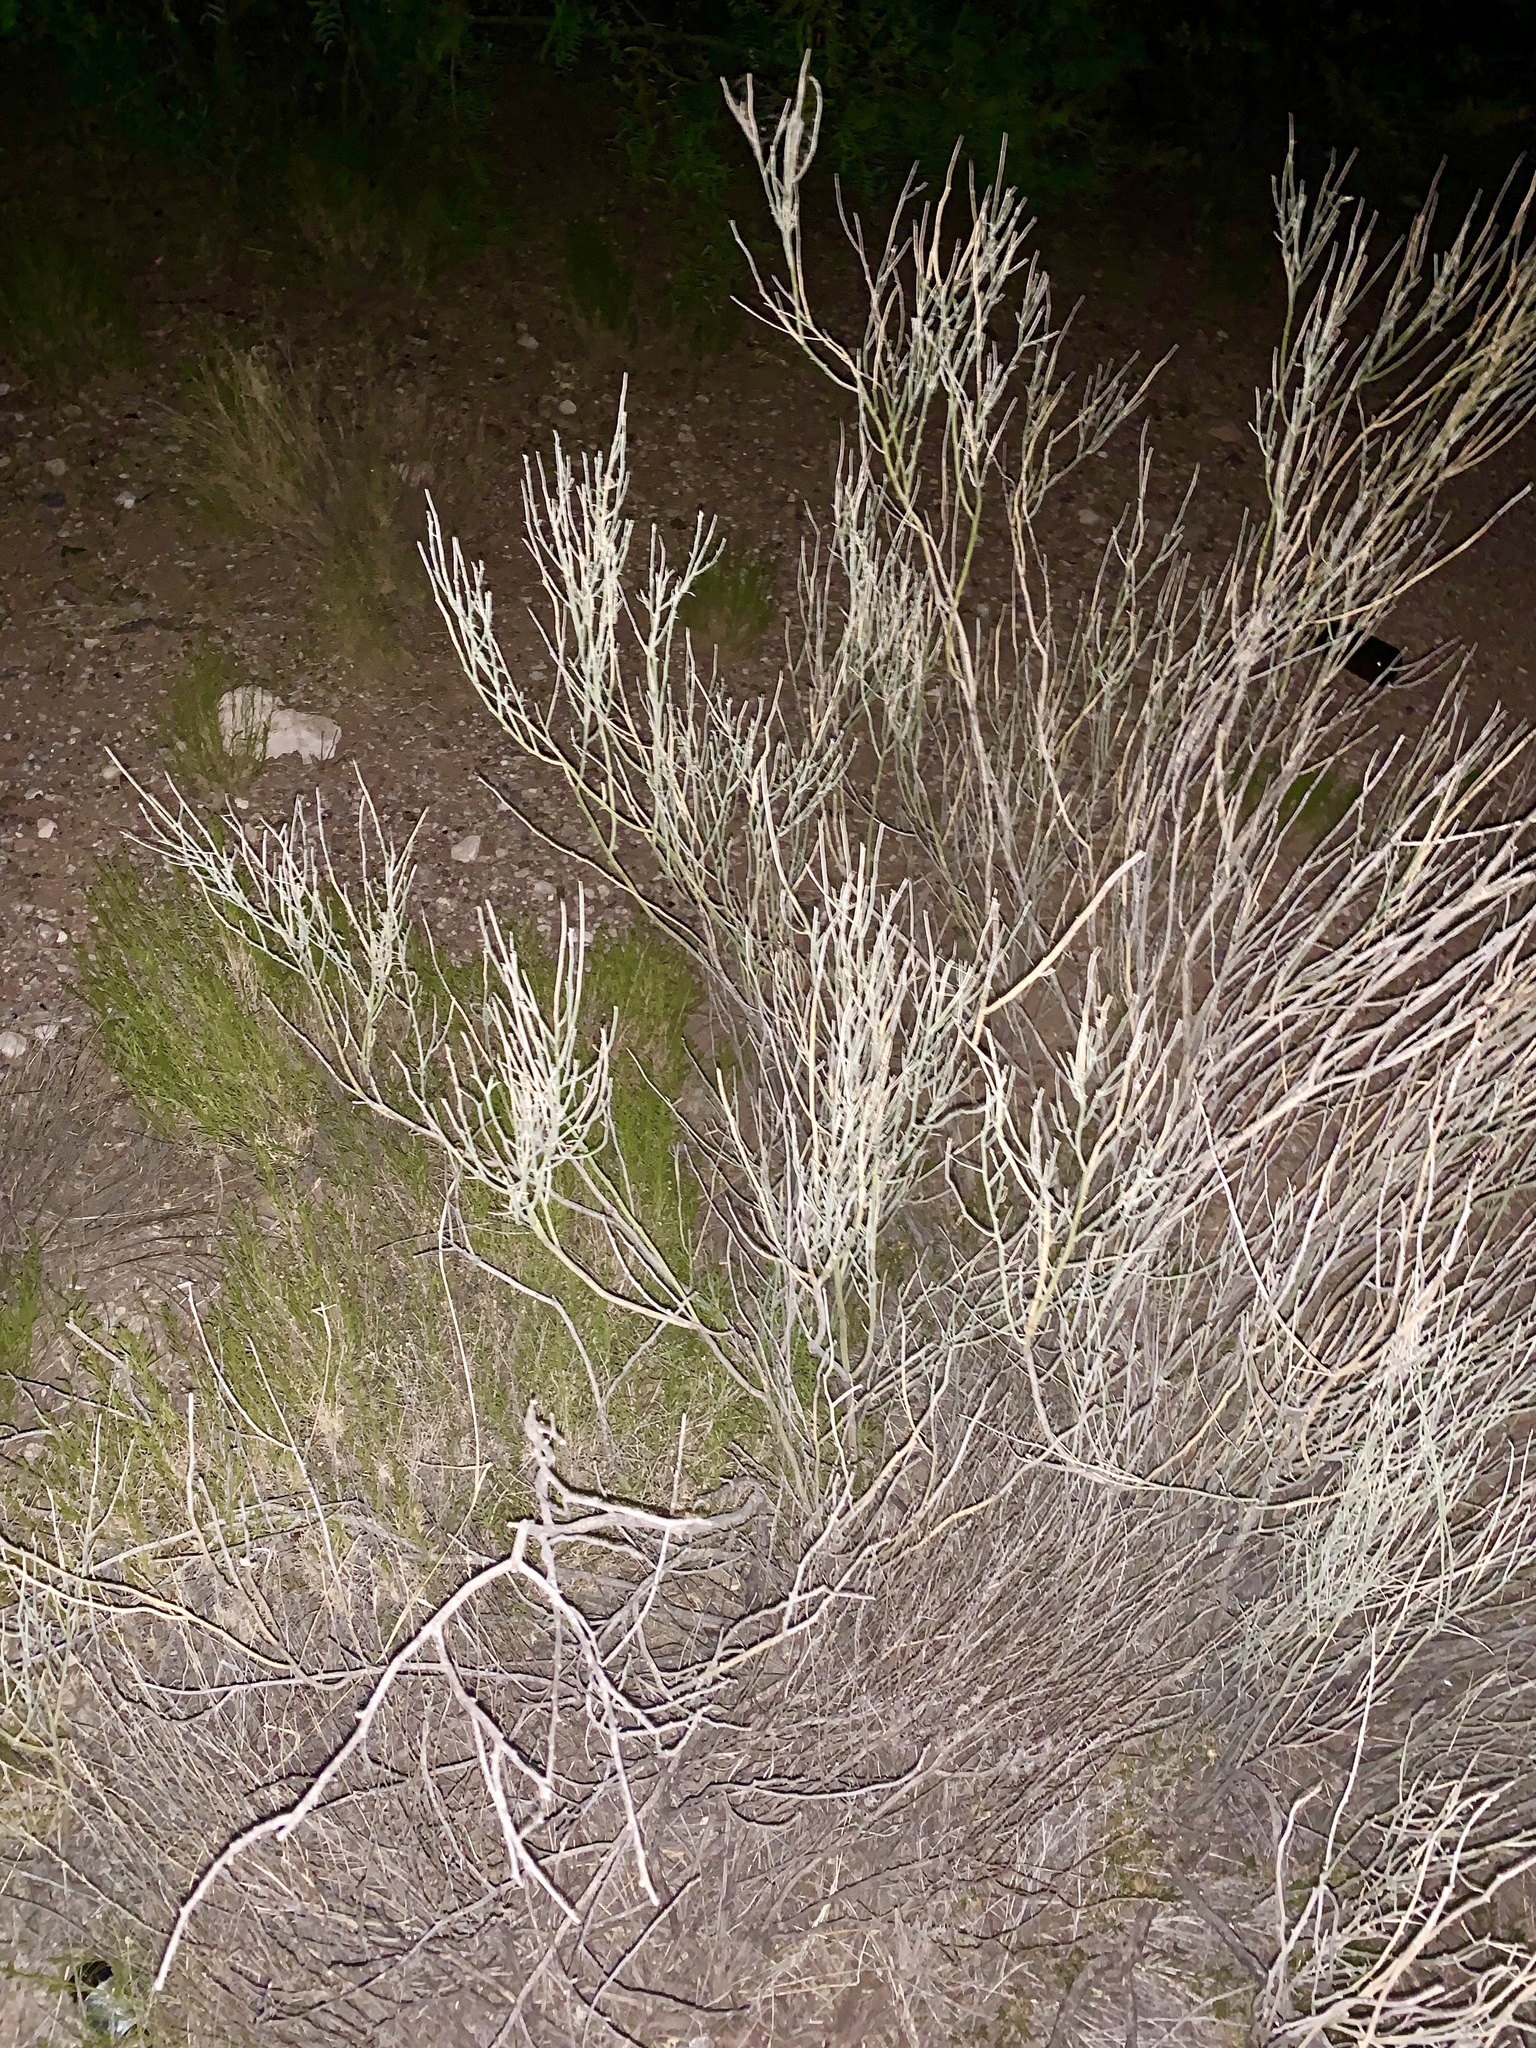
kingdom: Plantae
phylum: Tracheophyta
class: Gnetopsida
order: Ephedrales
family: Ephedraceae
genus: Ephedra
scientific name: Ephedra trifurca
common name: Mexican-tea
